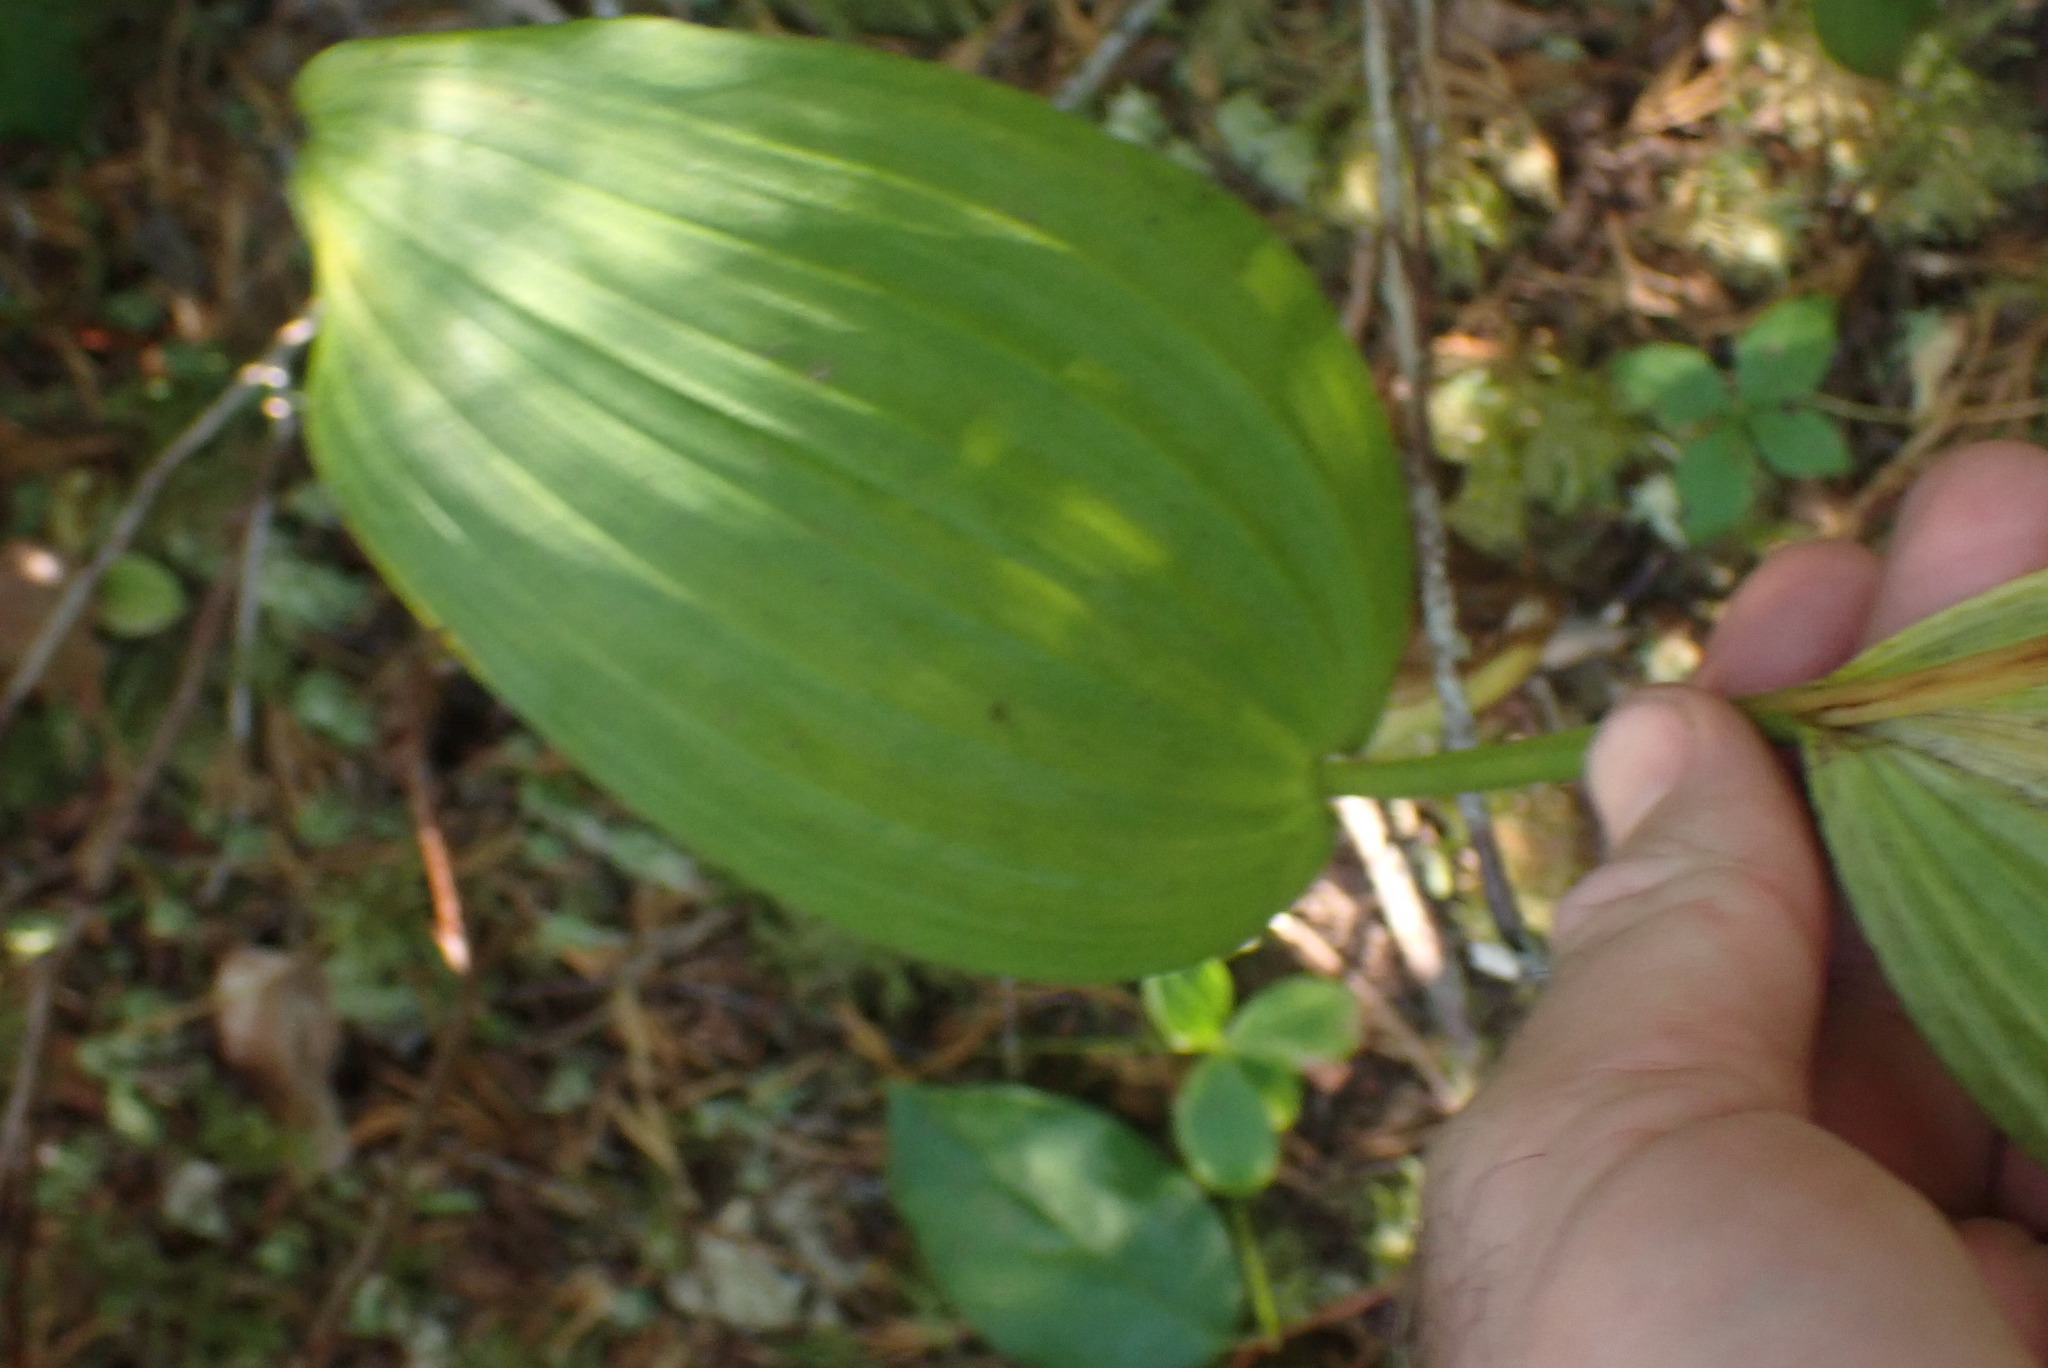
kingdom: Plantae
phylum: Tracheophyta
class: Liliopsida
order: Liliales
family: Melanthiaceae
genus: Veratrum
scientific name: Veratrum viride
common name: American false hellebore
